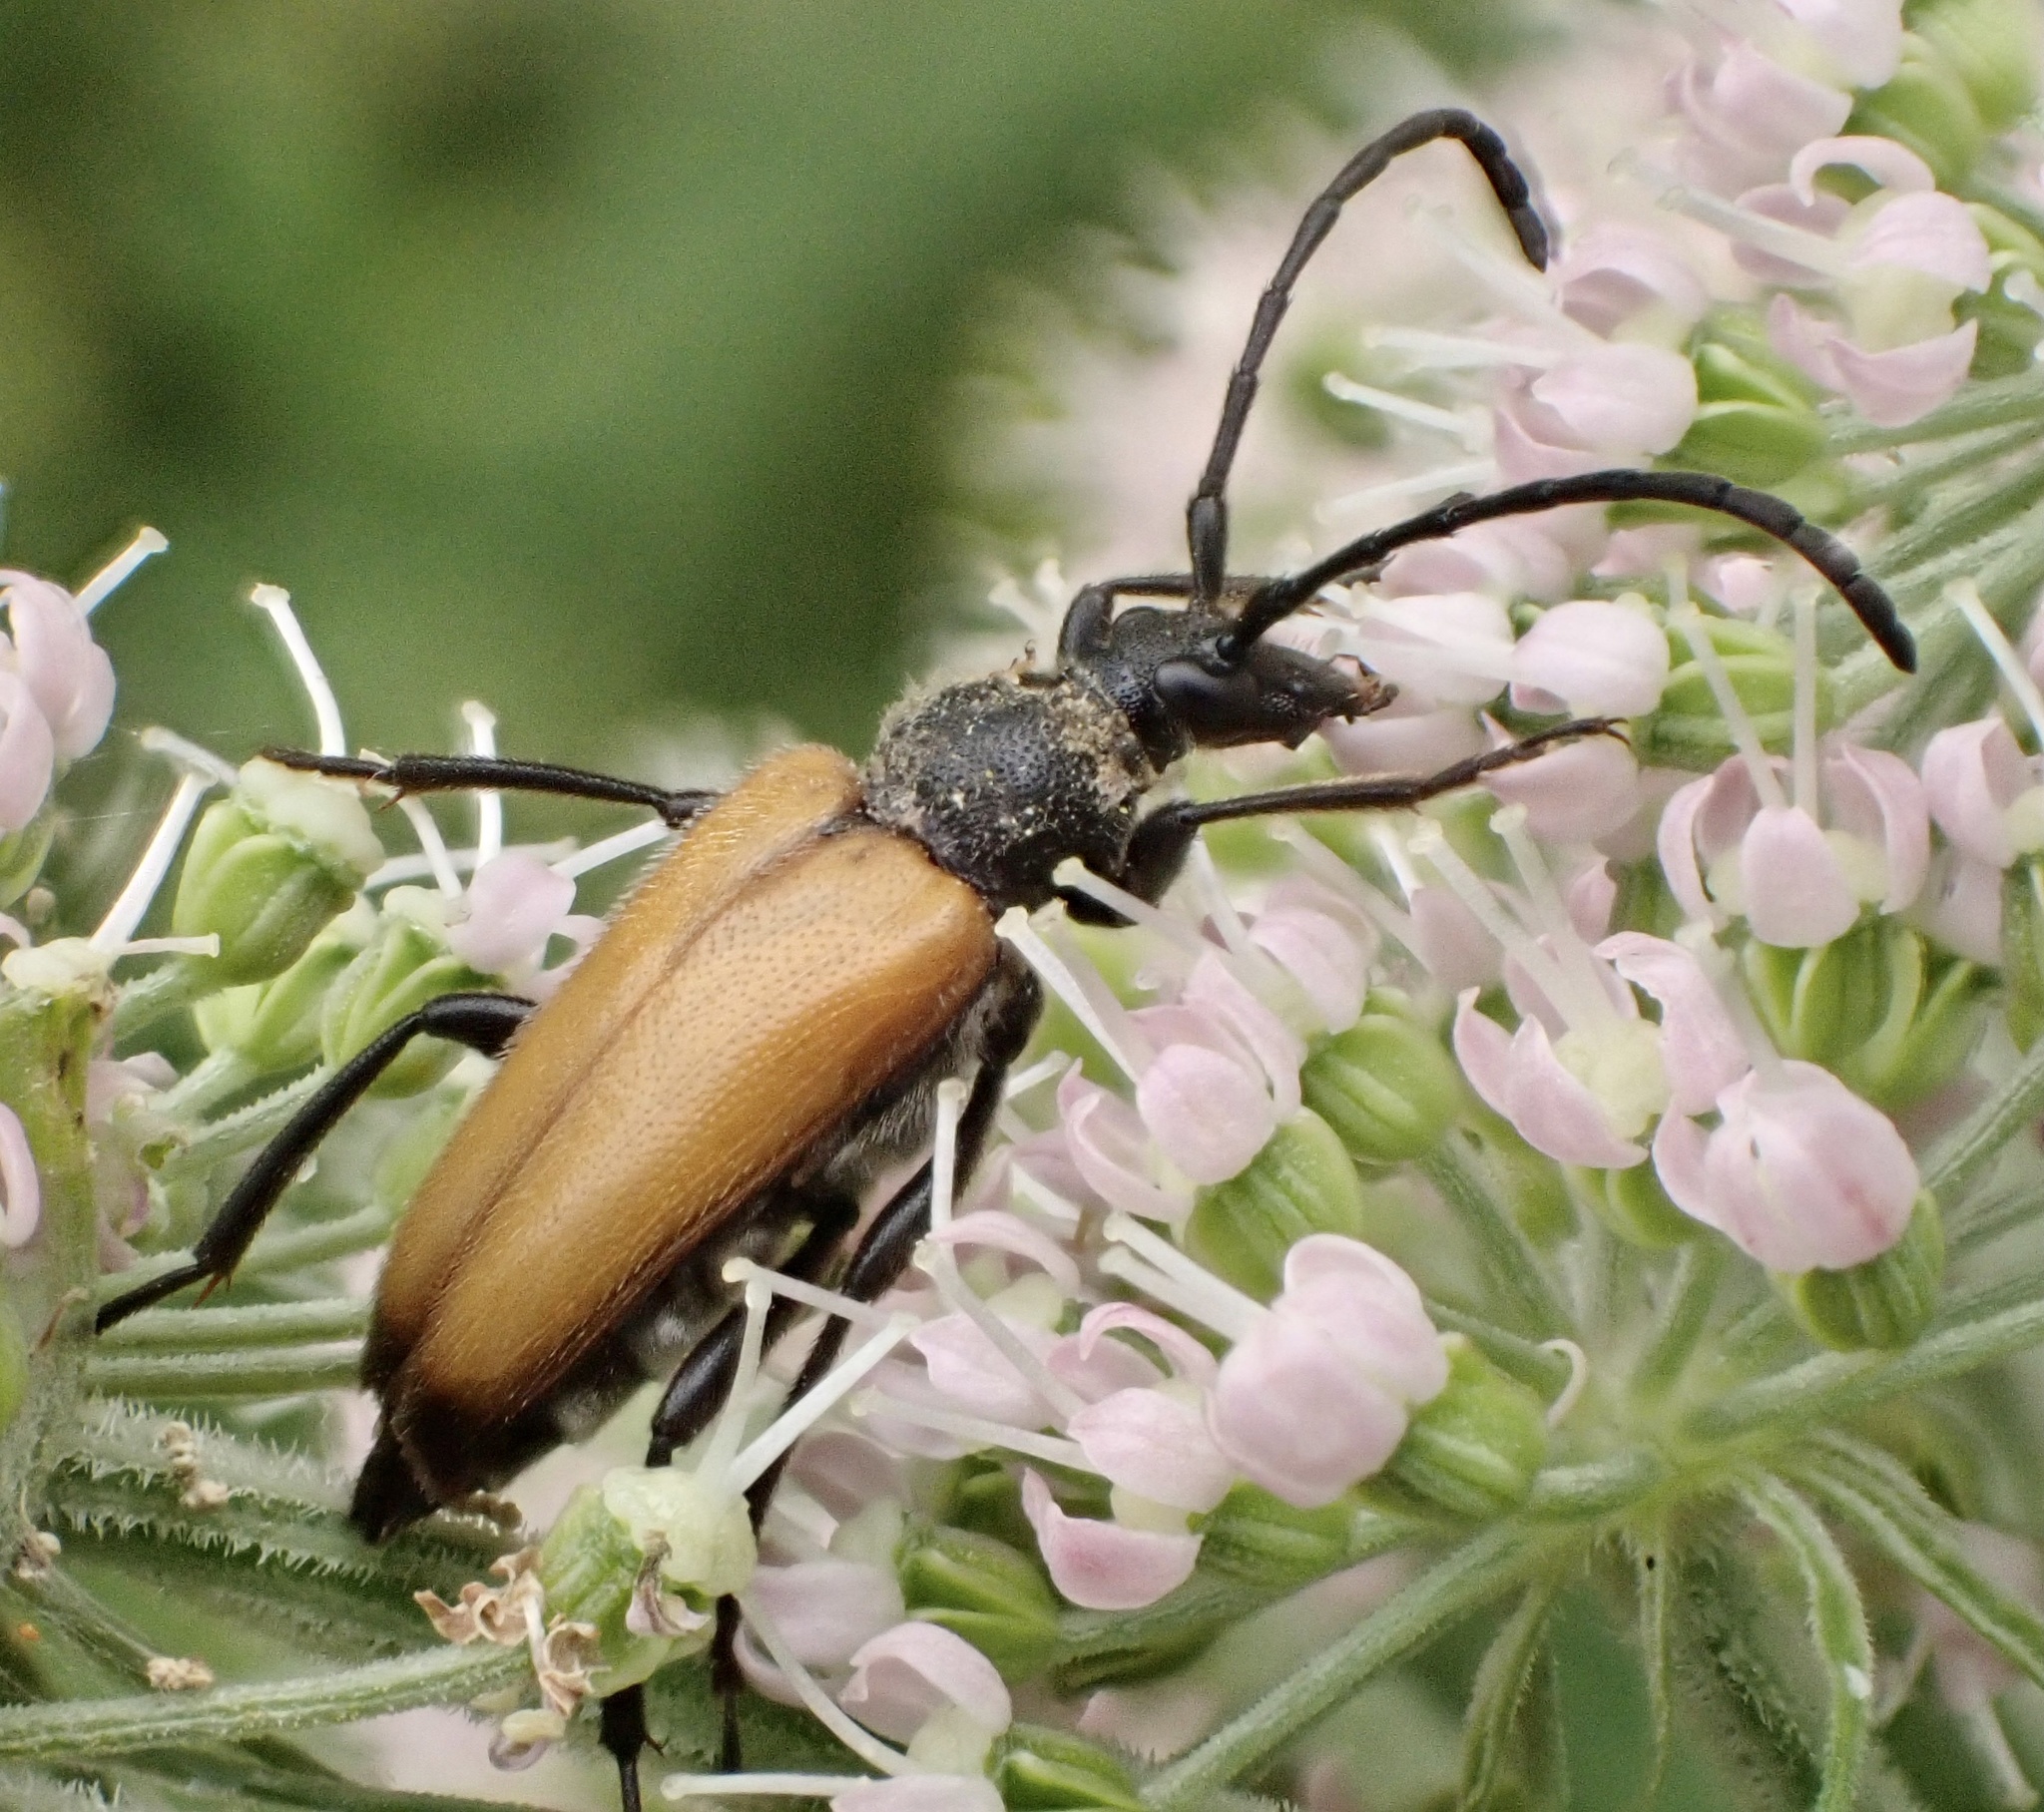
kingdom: Animalia
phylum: Arthropoda
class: Insecta
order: Coleoptera
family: Cerambycidae
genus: Paracorymbia
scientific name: Paracorymbia fulva
